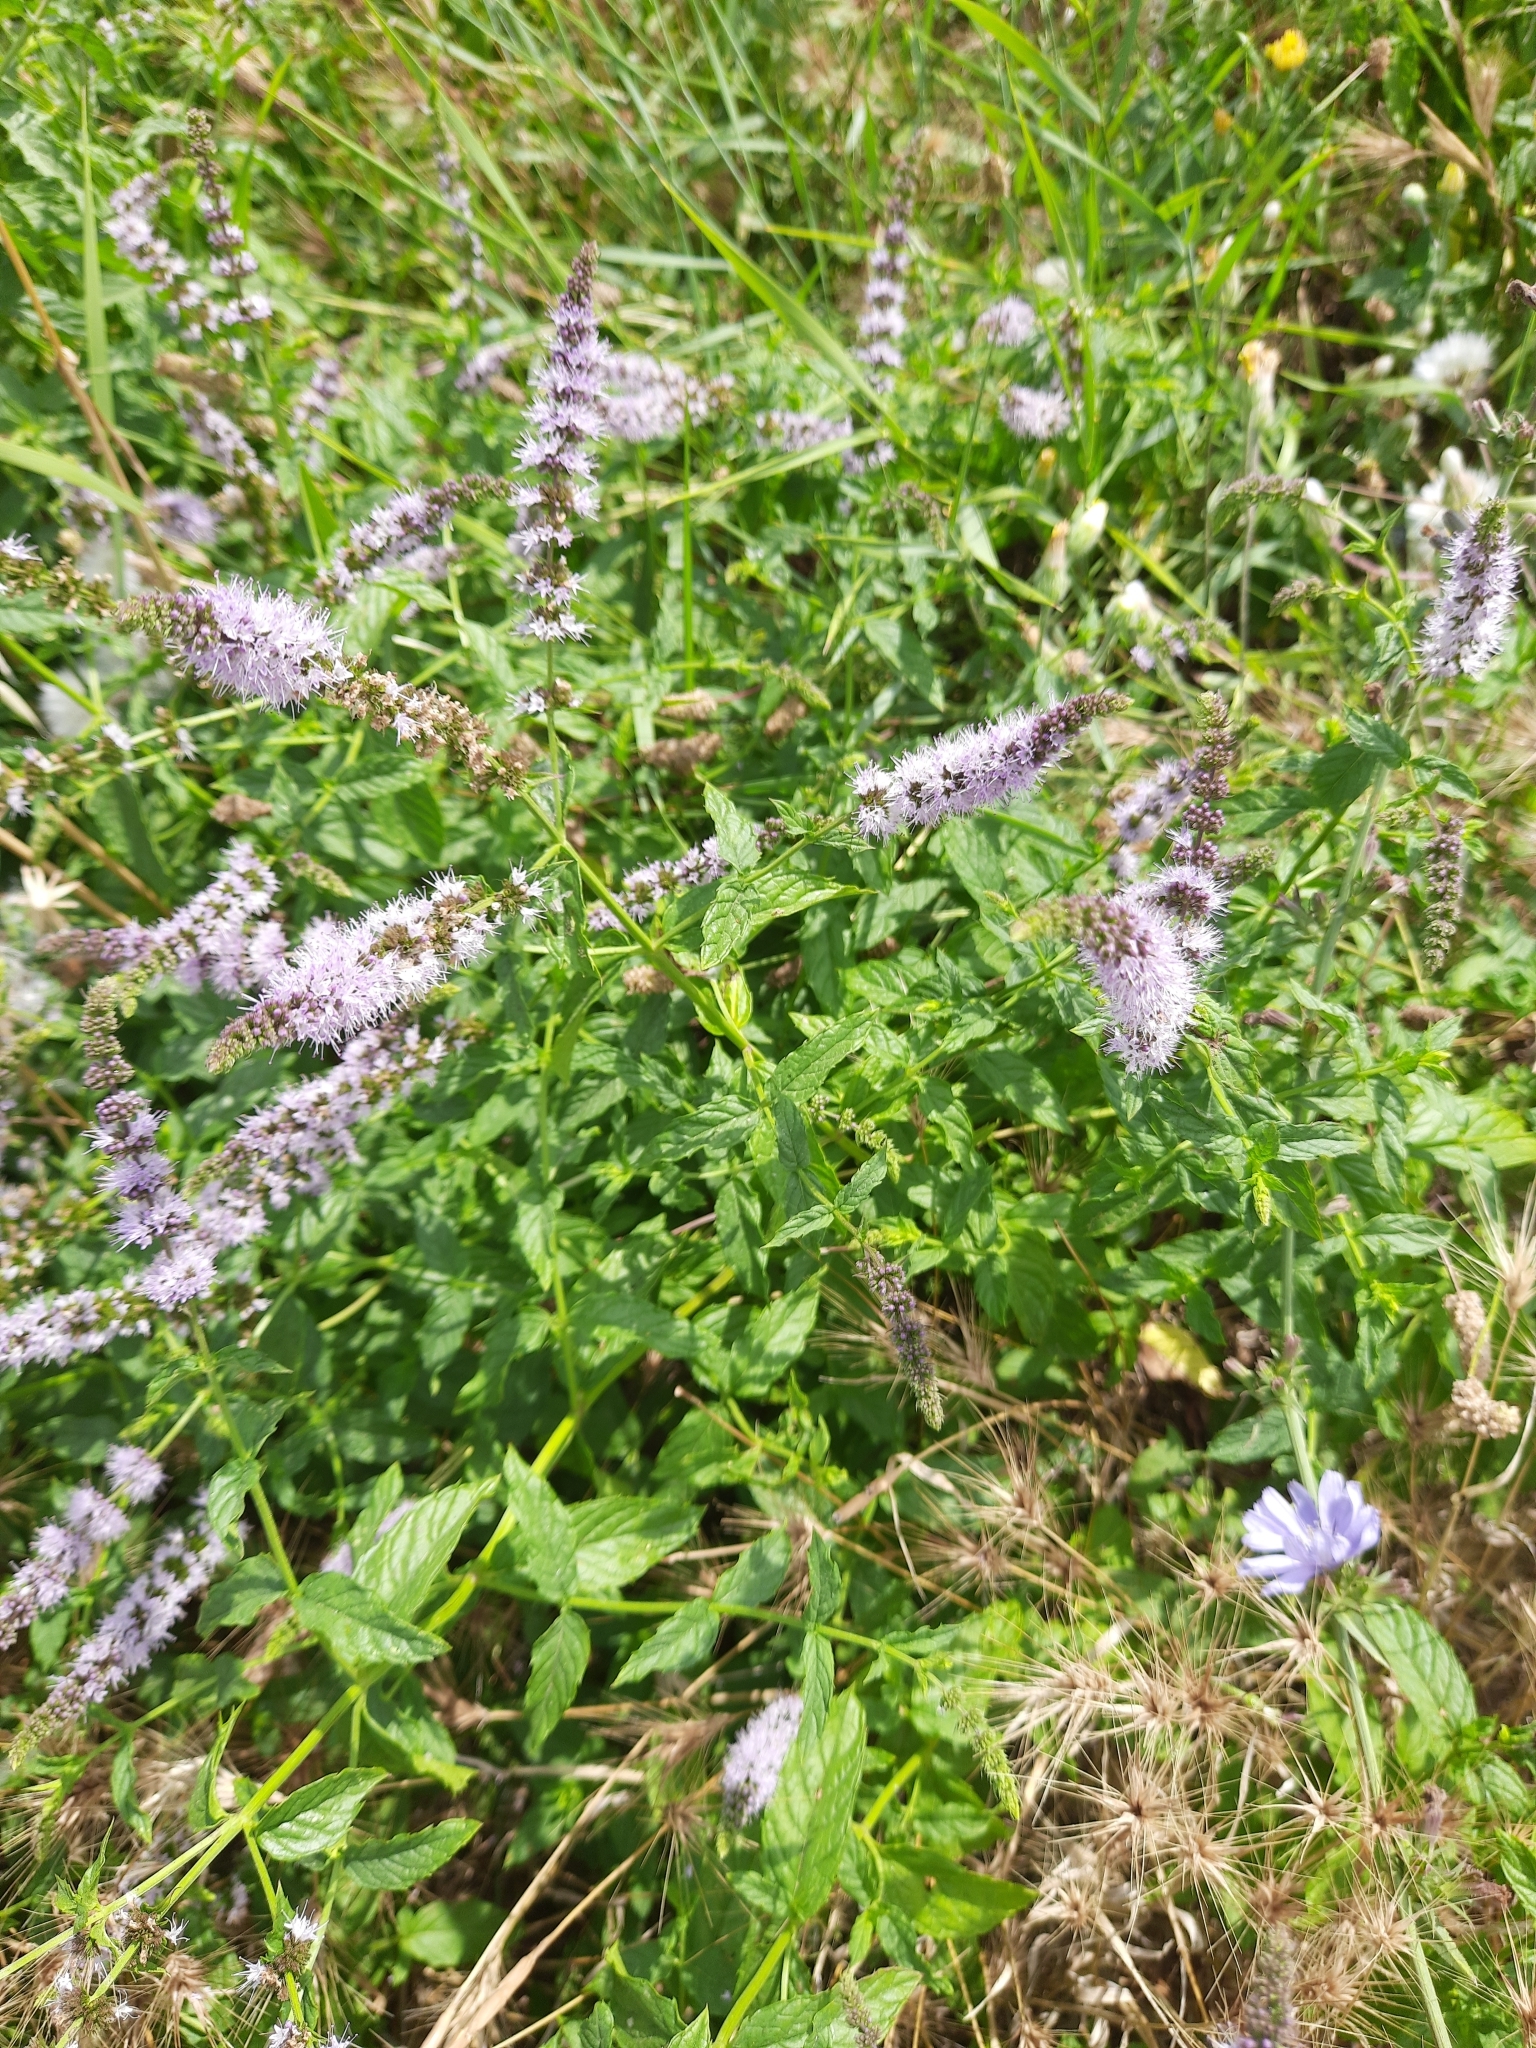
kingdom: Plantae
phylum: Tracheophyta
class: Magnoliopsida
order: Lamiales
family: Lamiaceae
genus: Mentha
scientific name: Mentha spicata
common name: Spearmint
